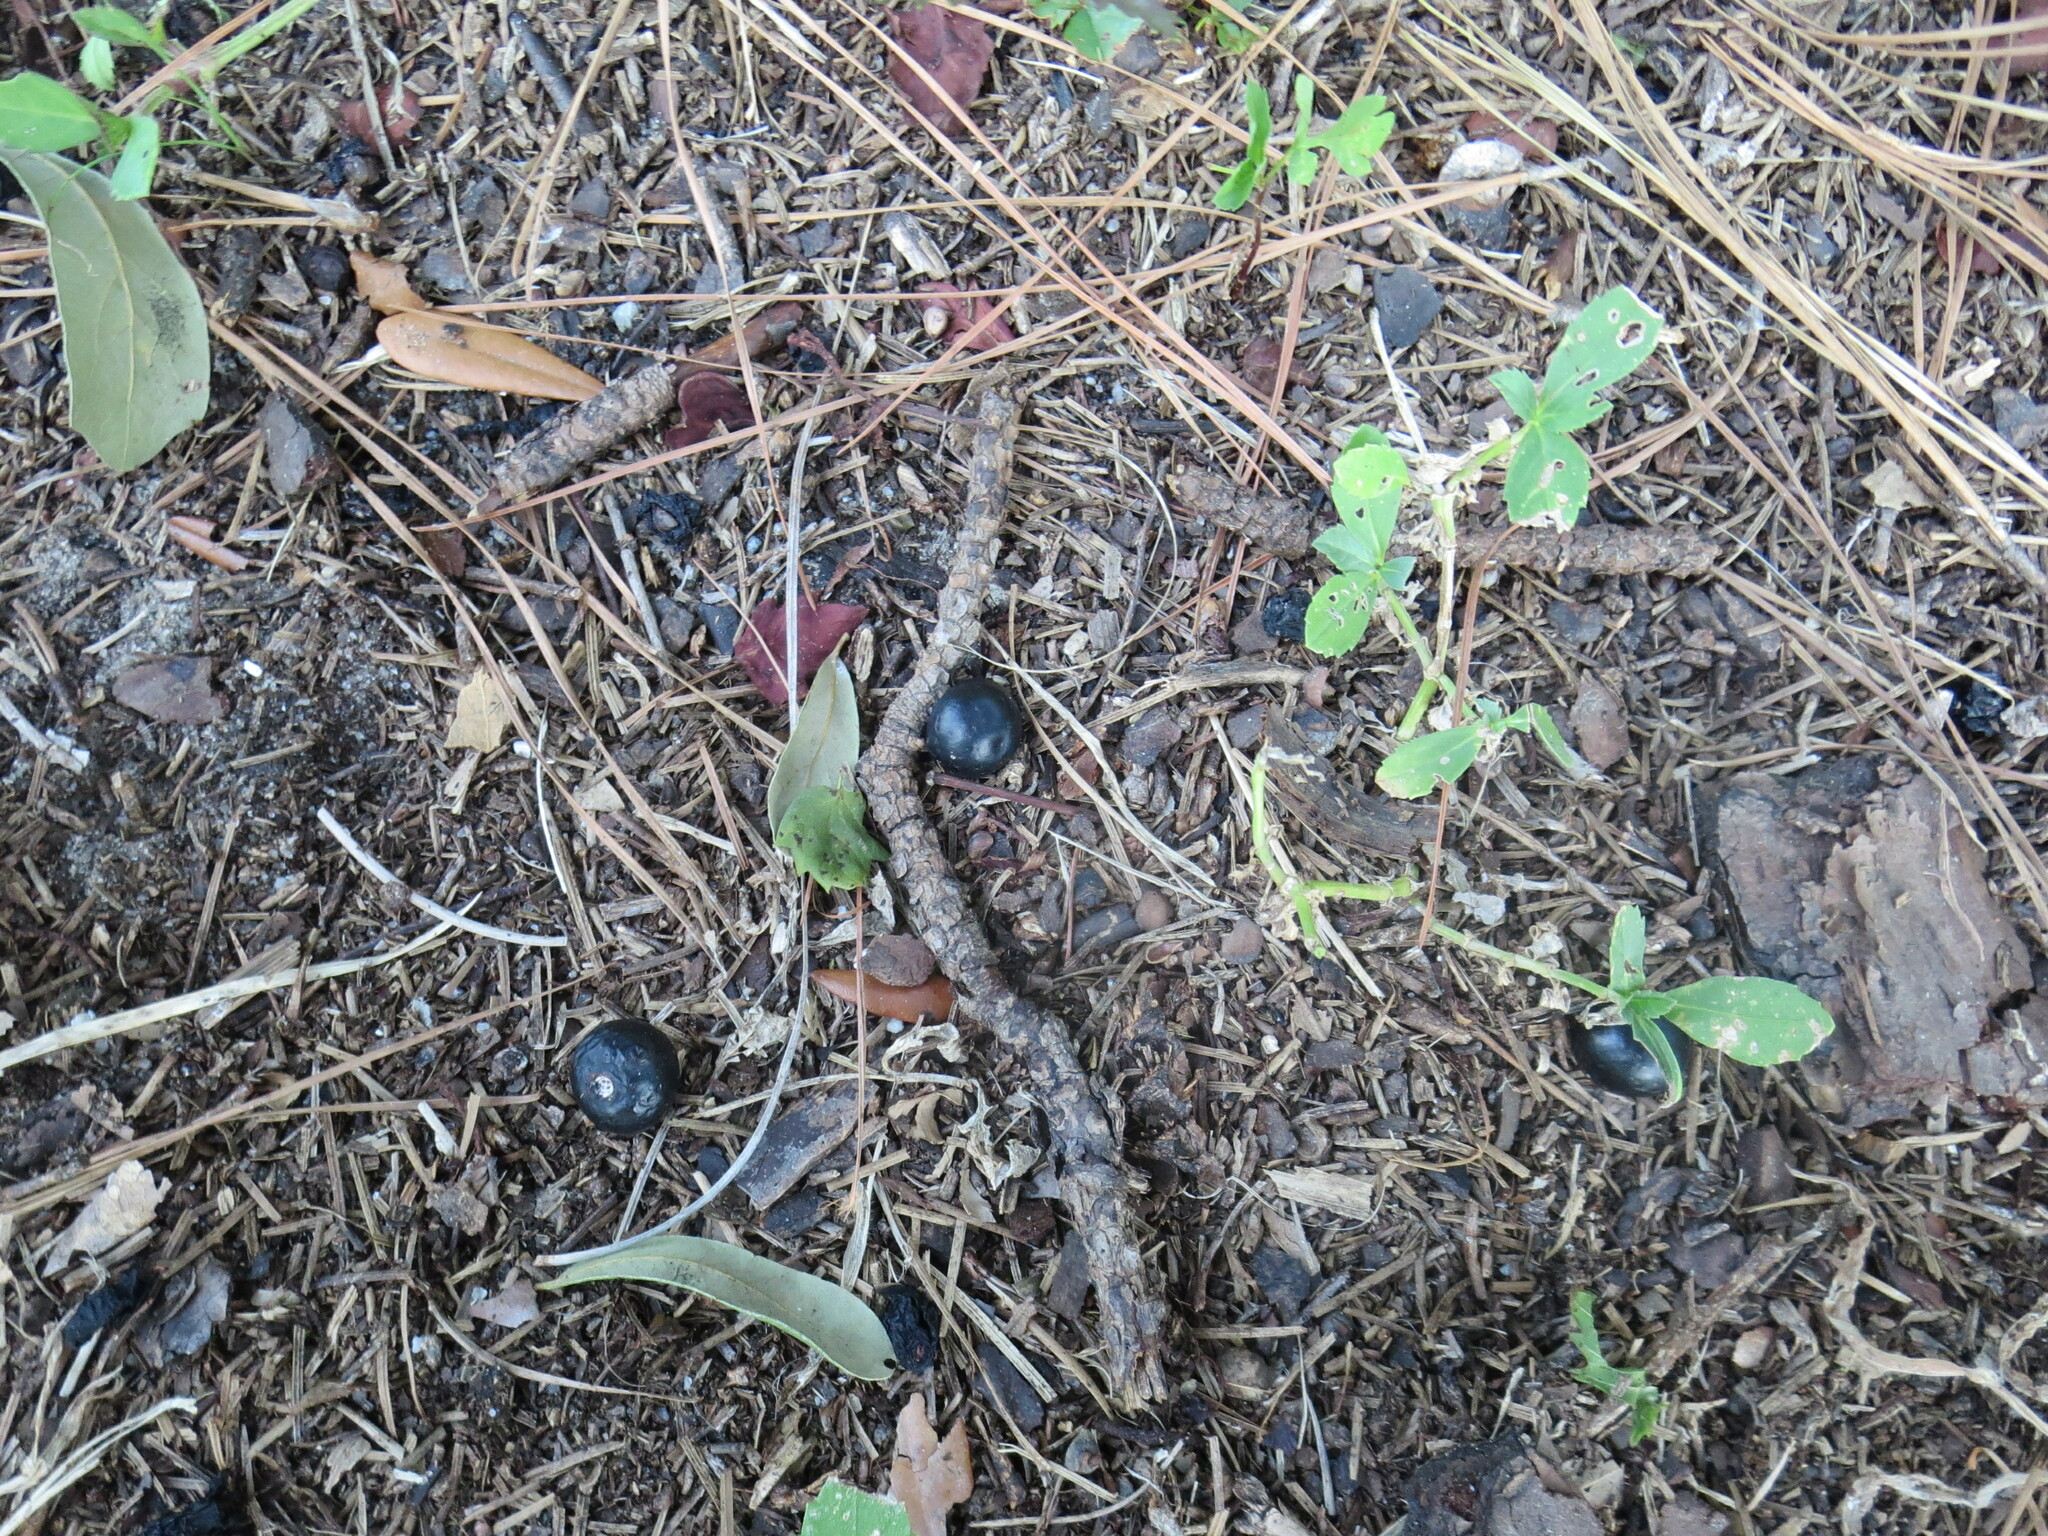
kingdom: Plantae
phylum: Tracheophyta
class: Magnoliopsida
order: Vitales
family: Vitaceae
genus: Nekemias
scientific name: Nekemias arborea
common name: Peppervine
